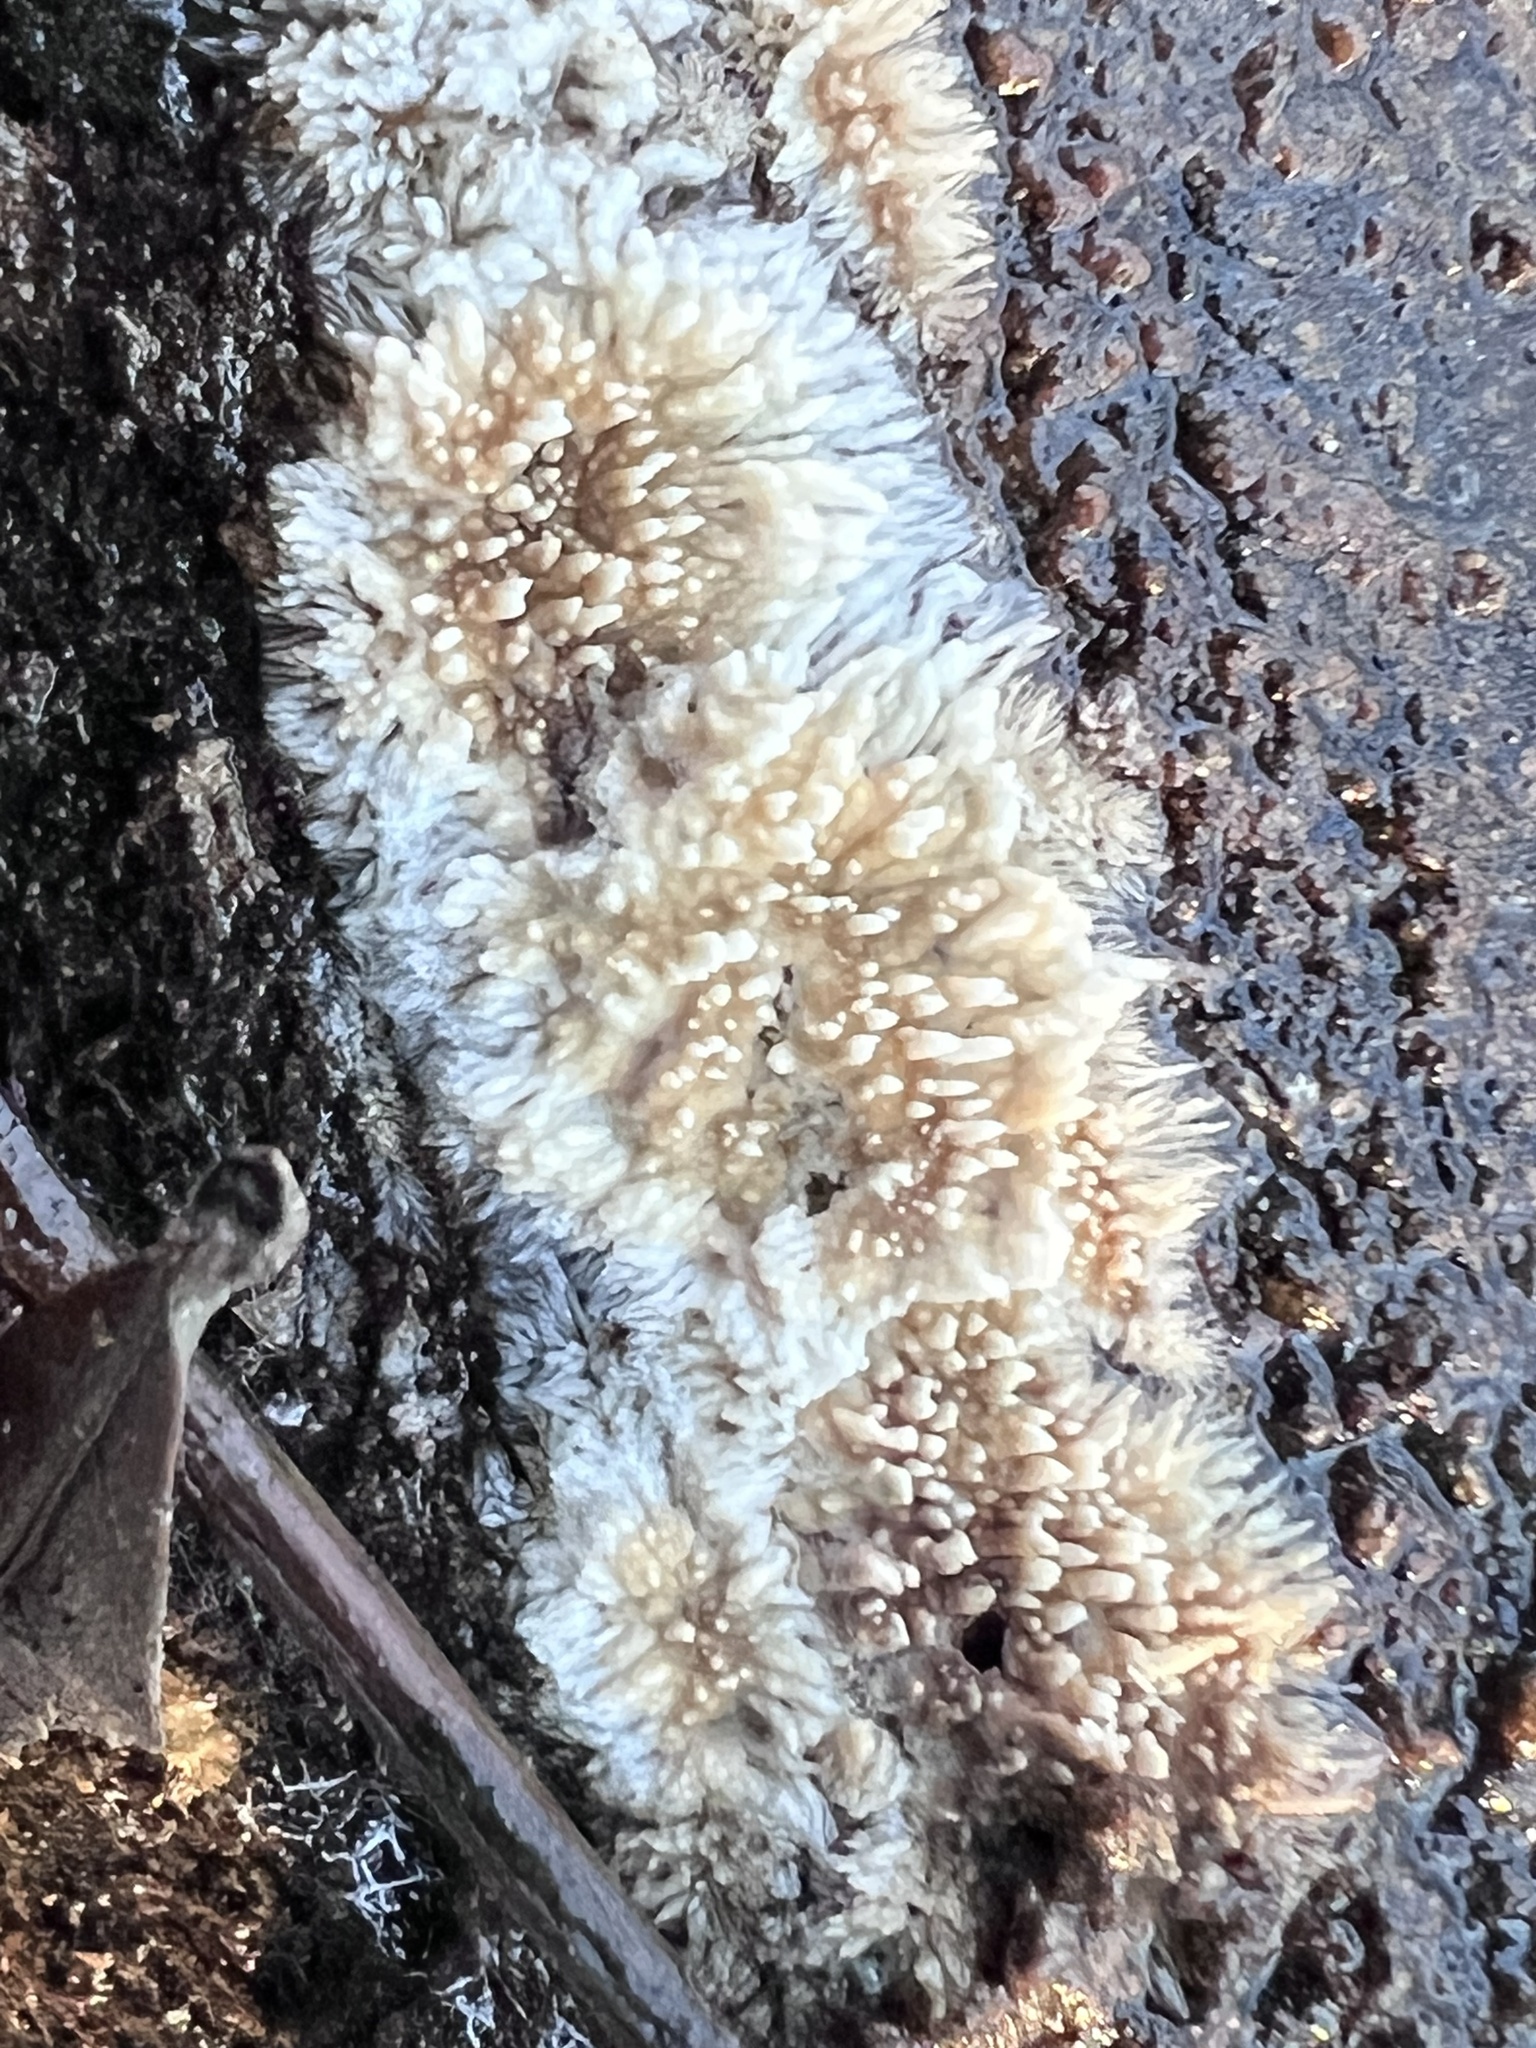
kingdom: Fungi
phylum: Basidiomycota
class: Agaricomycetes
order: Agaricales
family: Radulomycetaceae
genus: Radulomyces
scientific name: Radulomyces copelandii
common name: Asian beauty
